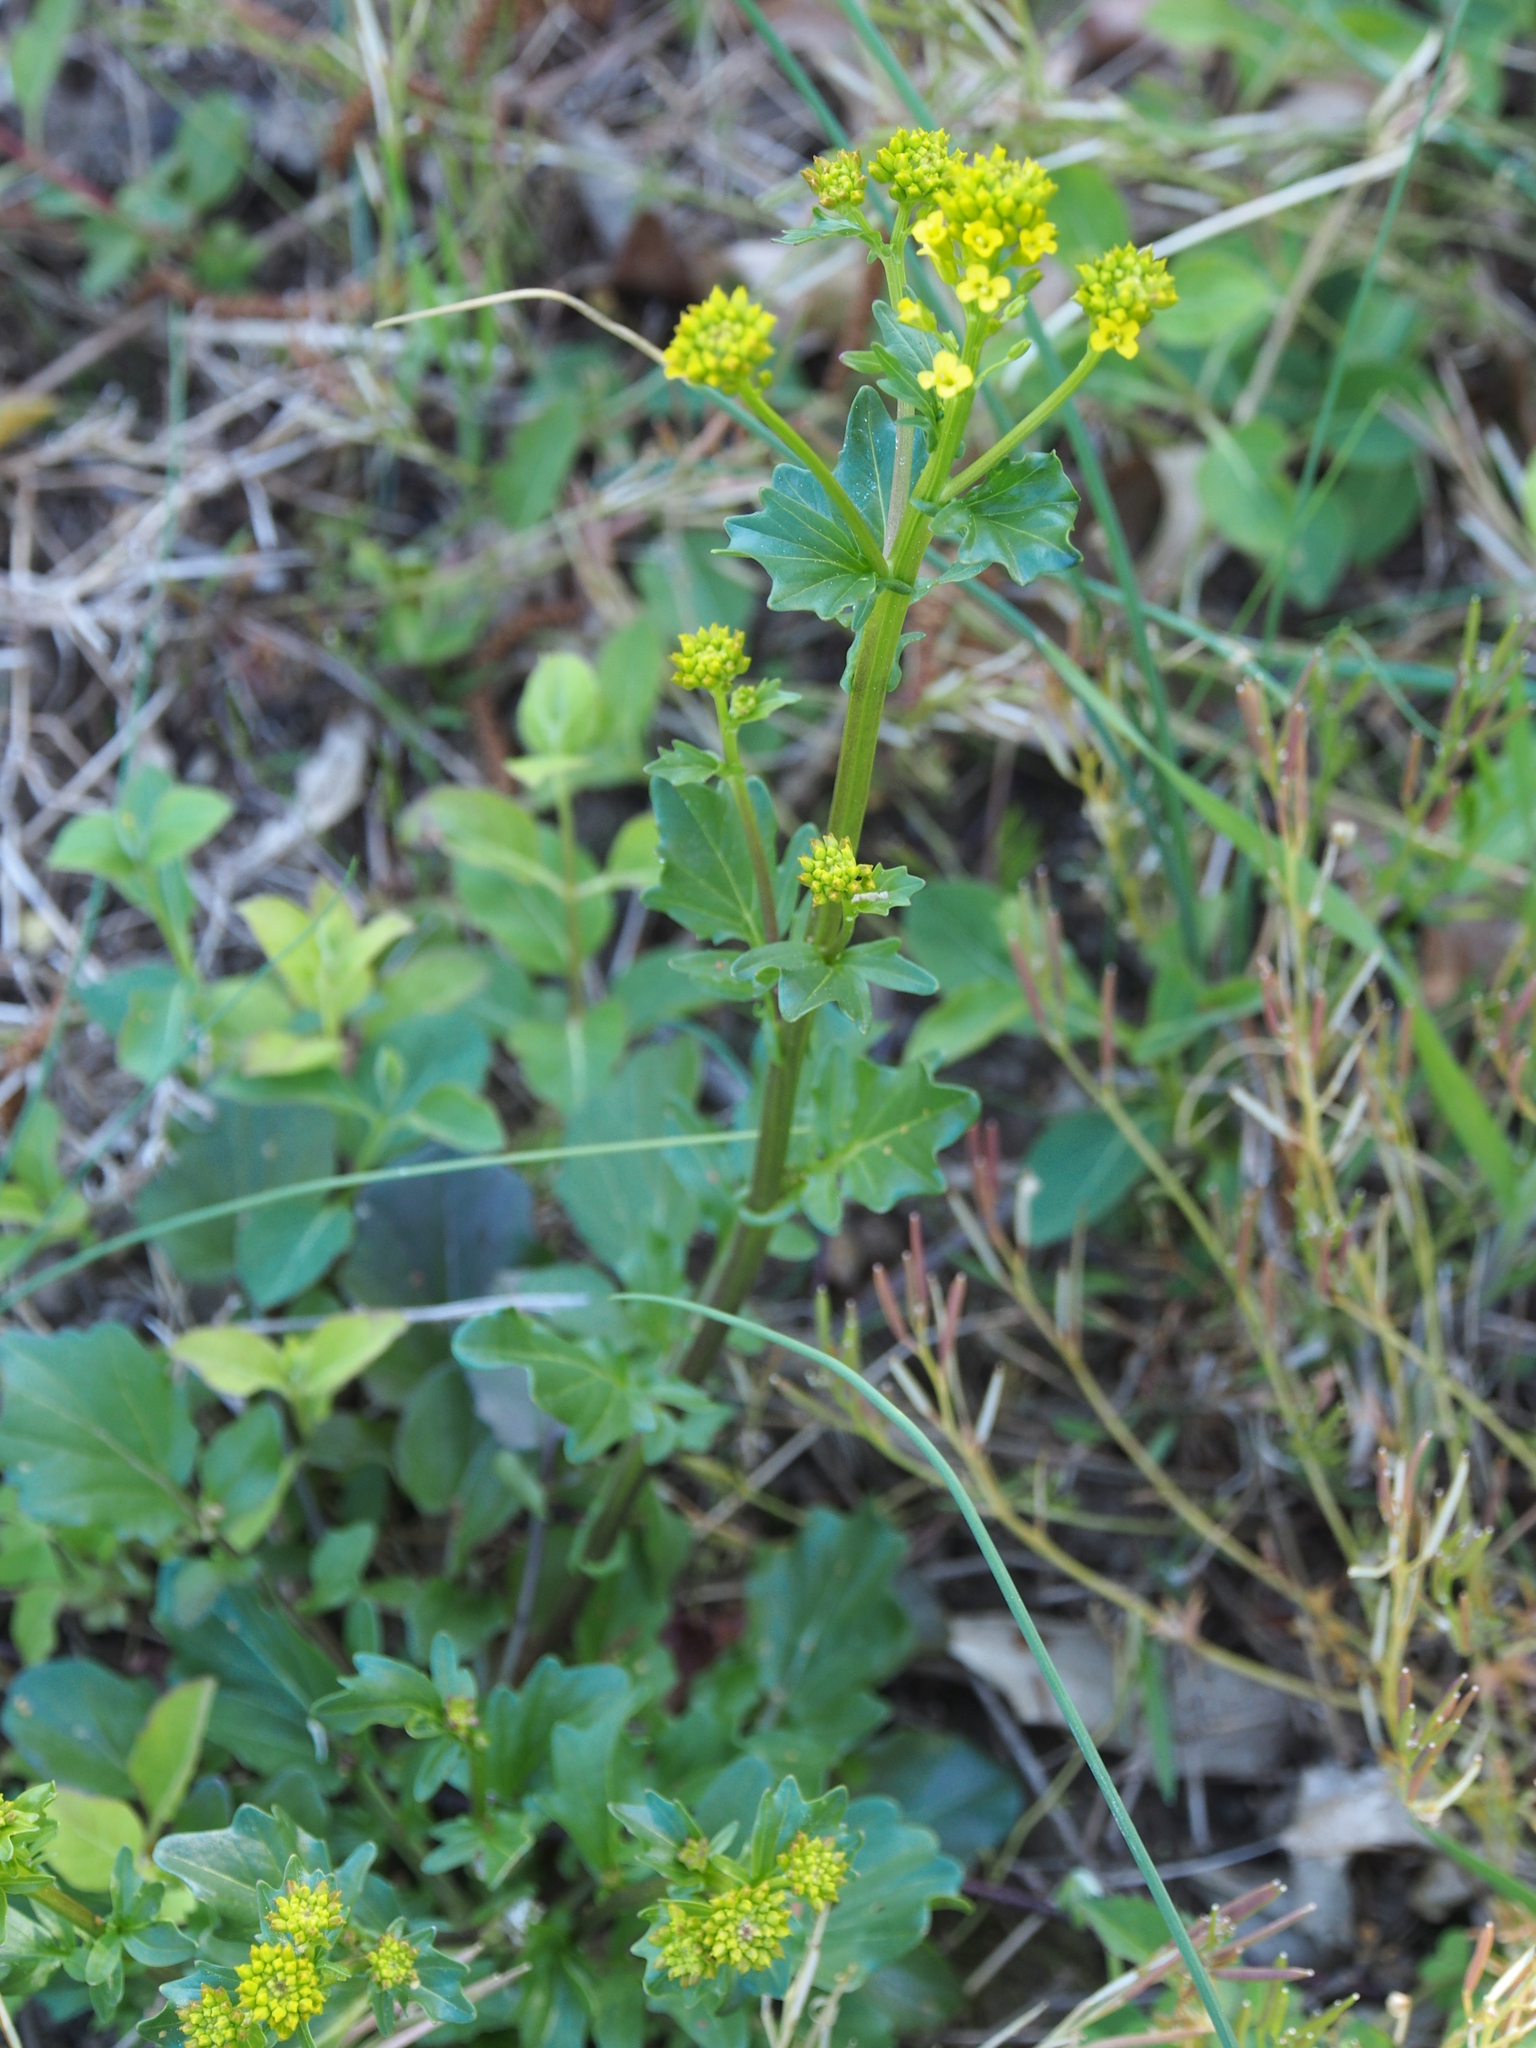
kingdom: Plantae
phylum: Tracheophyta
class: Magnoliopsida
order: Brassicales
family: Brassicaceae
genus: Barbarea
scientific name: Barbarea vulgaris
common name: Cressy-greens
